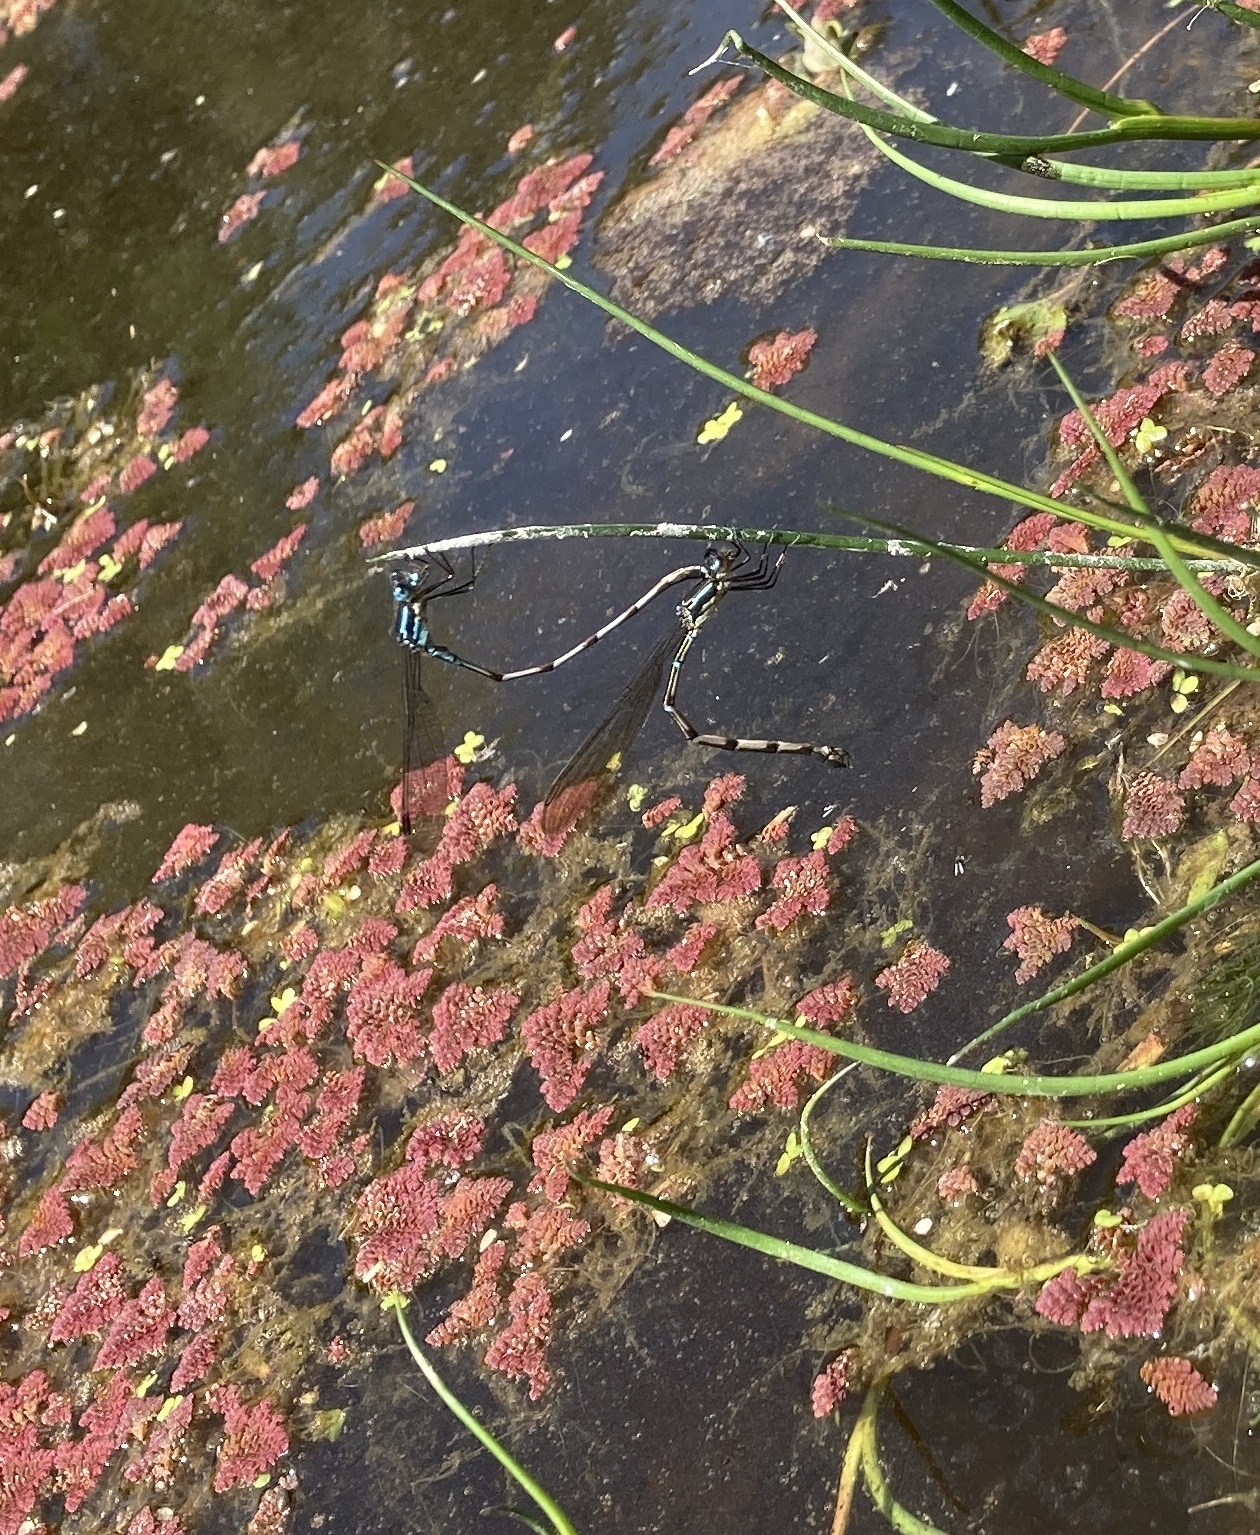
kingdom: Animalia
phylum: Arthropoda
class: Insecta
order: Odonata
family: Lestidae
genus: Austrolestes
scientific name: Austrolestes colensonis
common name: Blue damselfly
